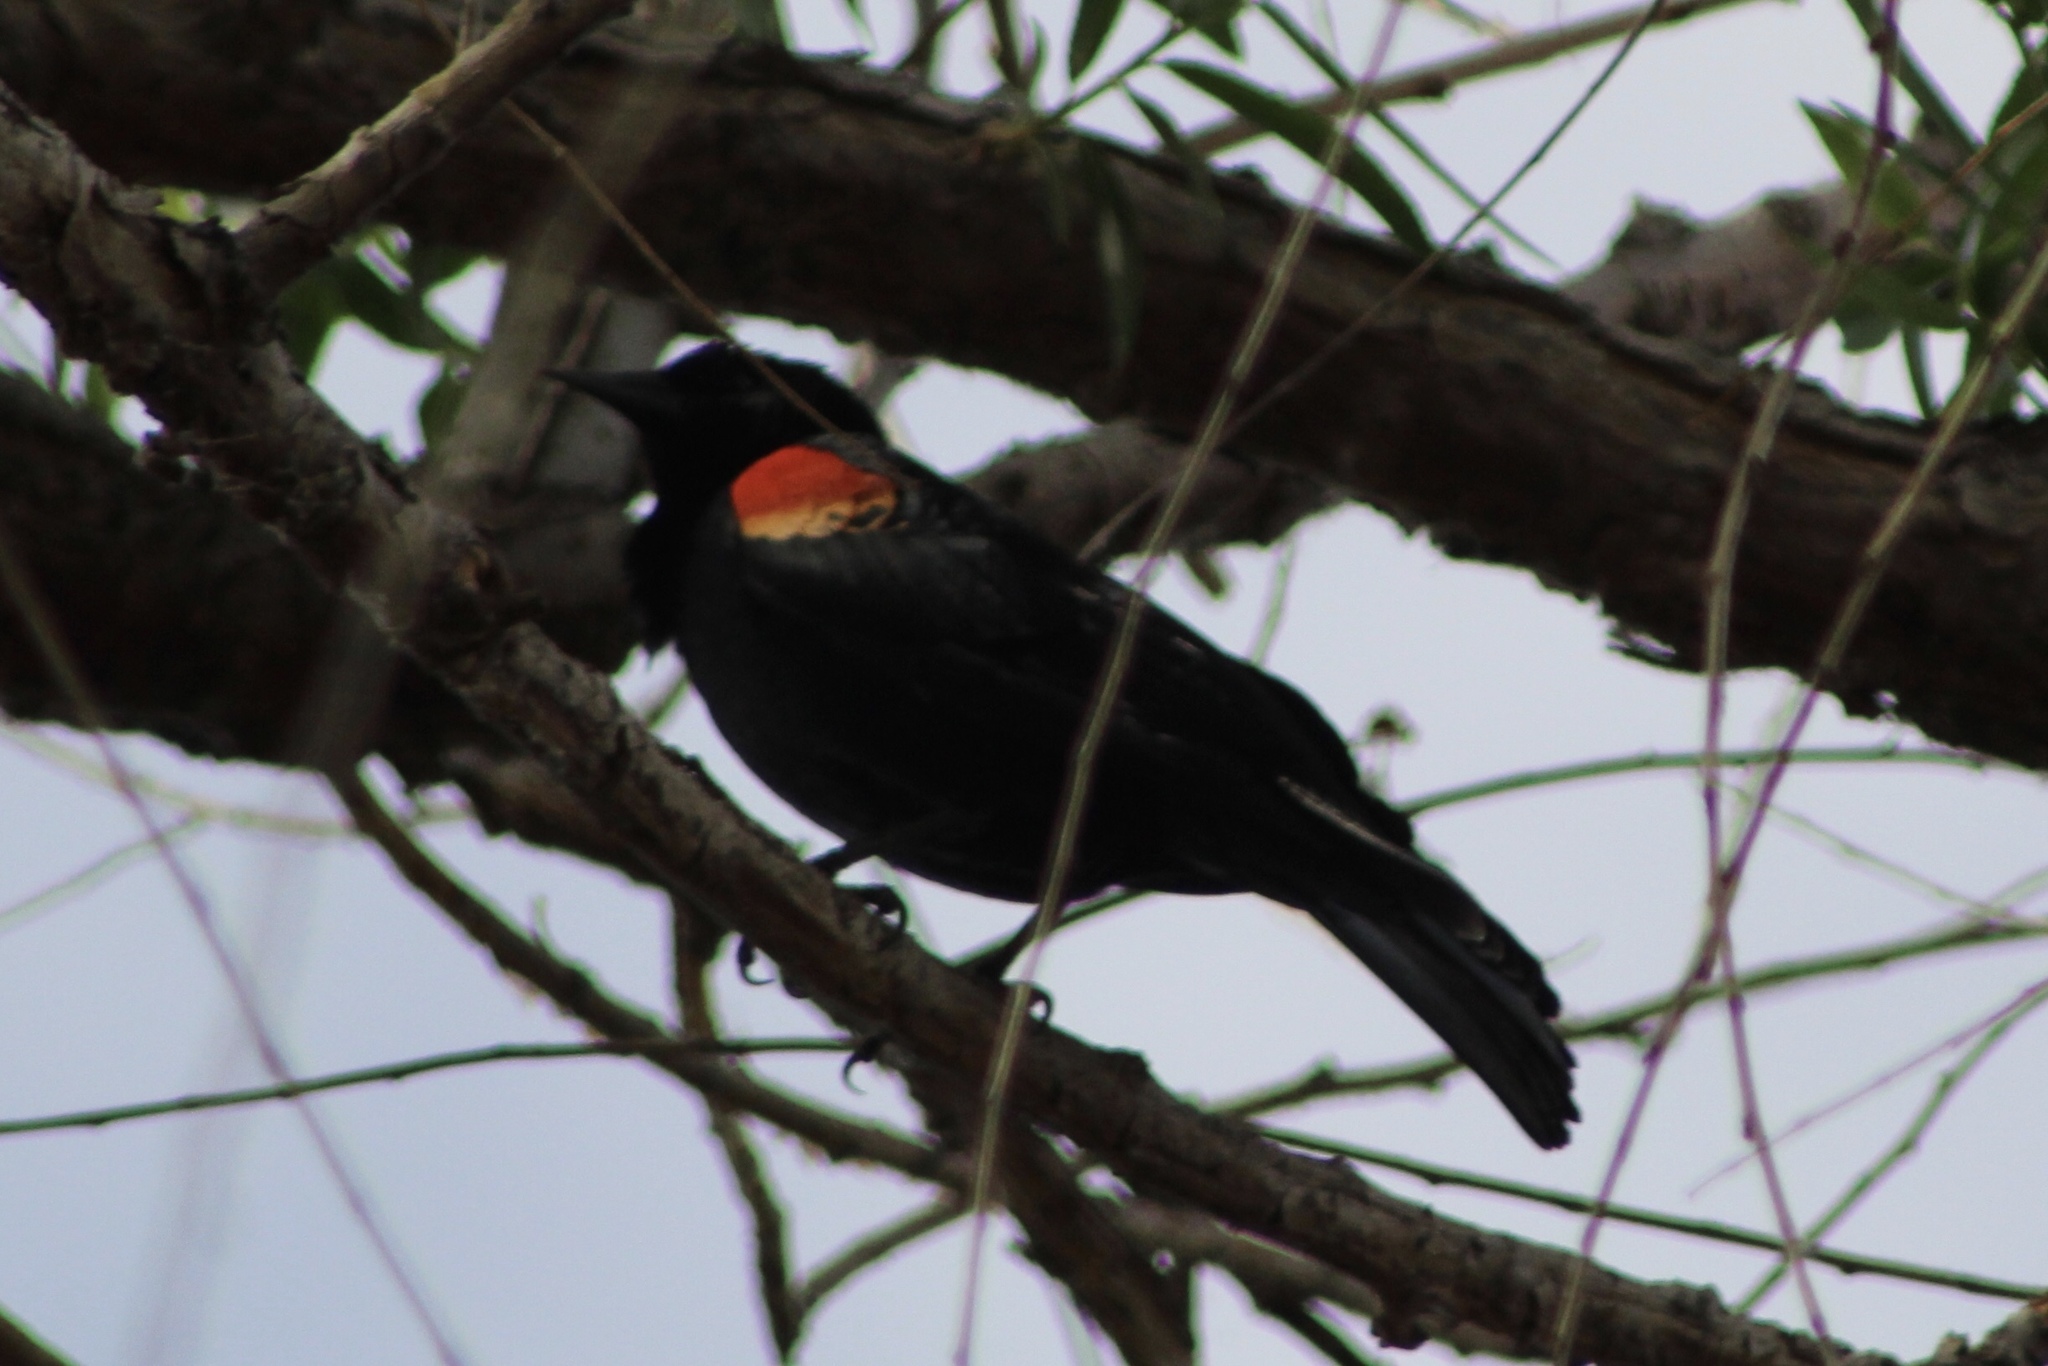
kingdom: Animalia
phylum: Chordata
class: Aves
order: Passeriformes
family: Icteridae
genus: Agelaius
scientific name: Agelaius phoeniceus
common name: Red-winged blackbird
